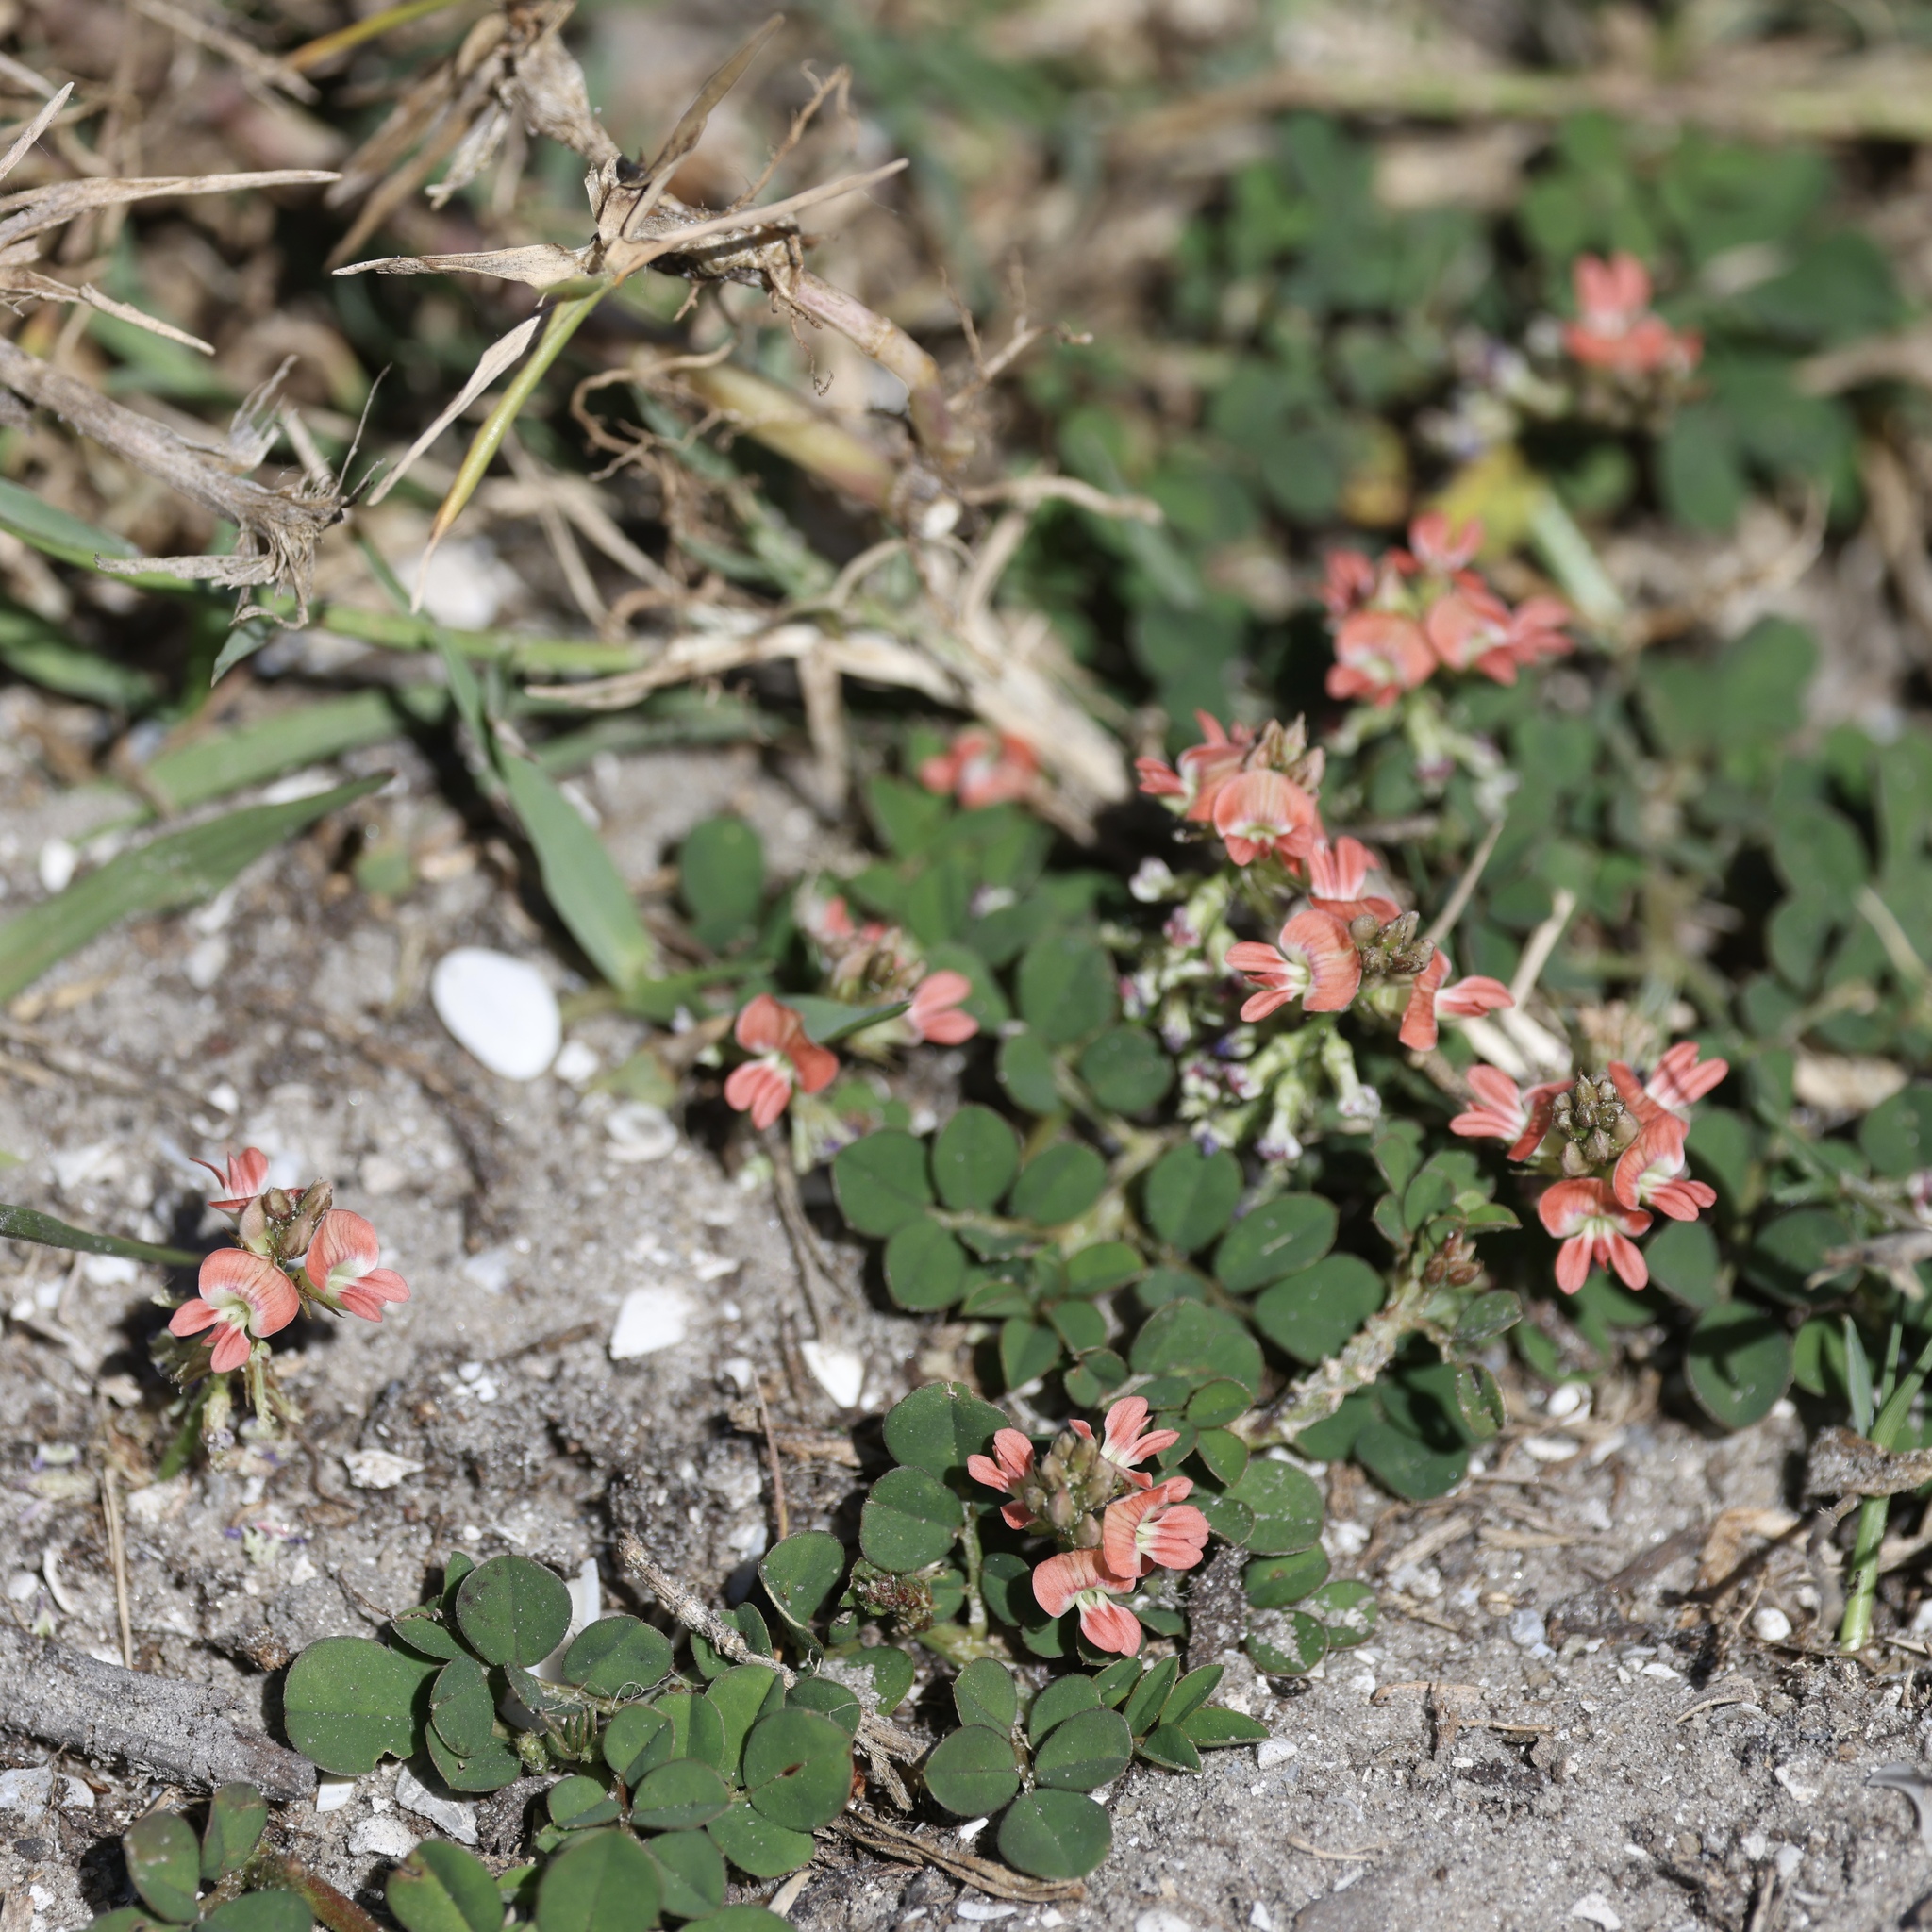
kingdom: Plantae
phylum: Tracheophyta
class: Magnoliopsida
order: Fabales
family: Fabaceae
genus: Indigofera
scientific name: Indigofera spicata
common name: Creeping indigo
